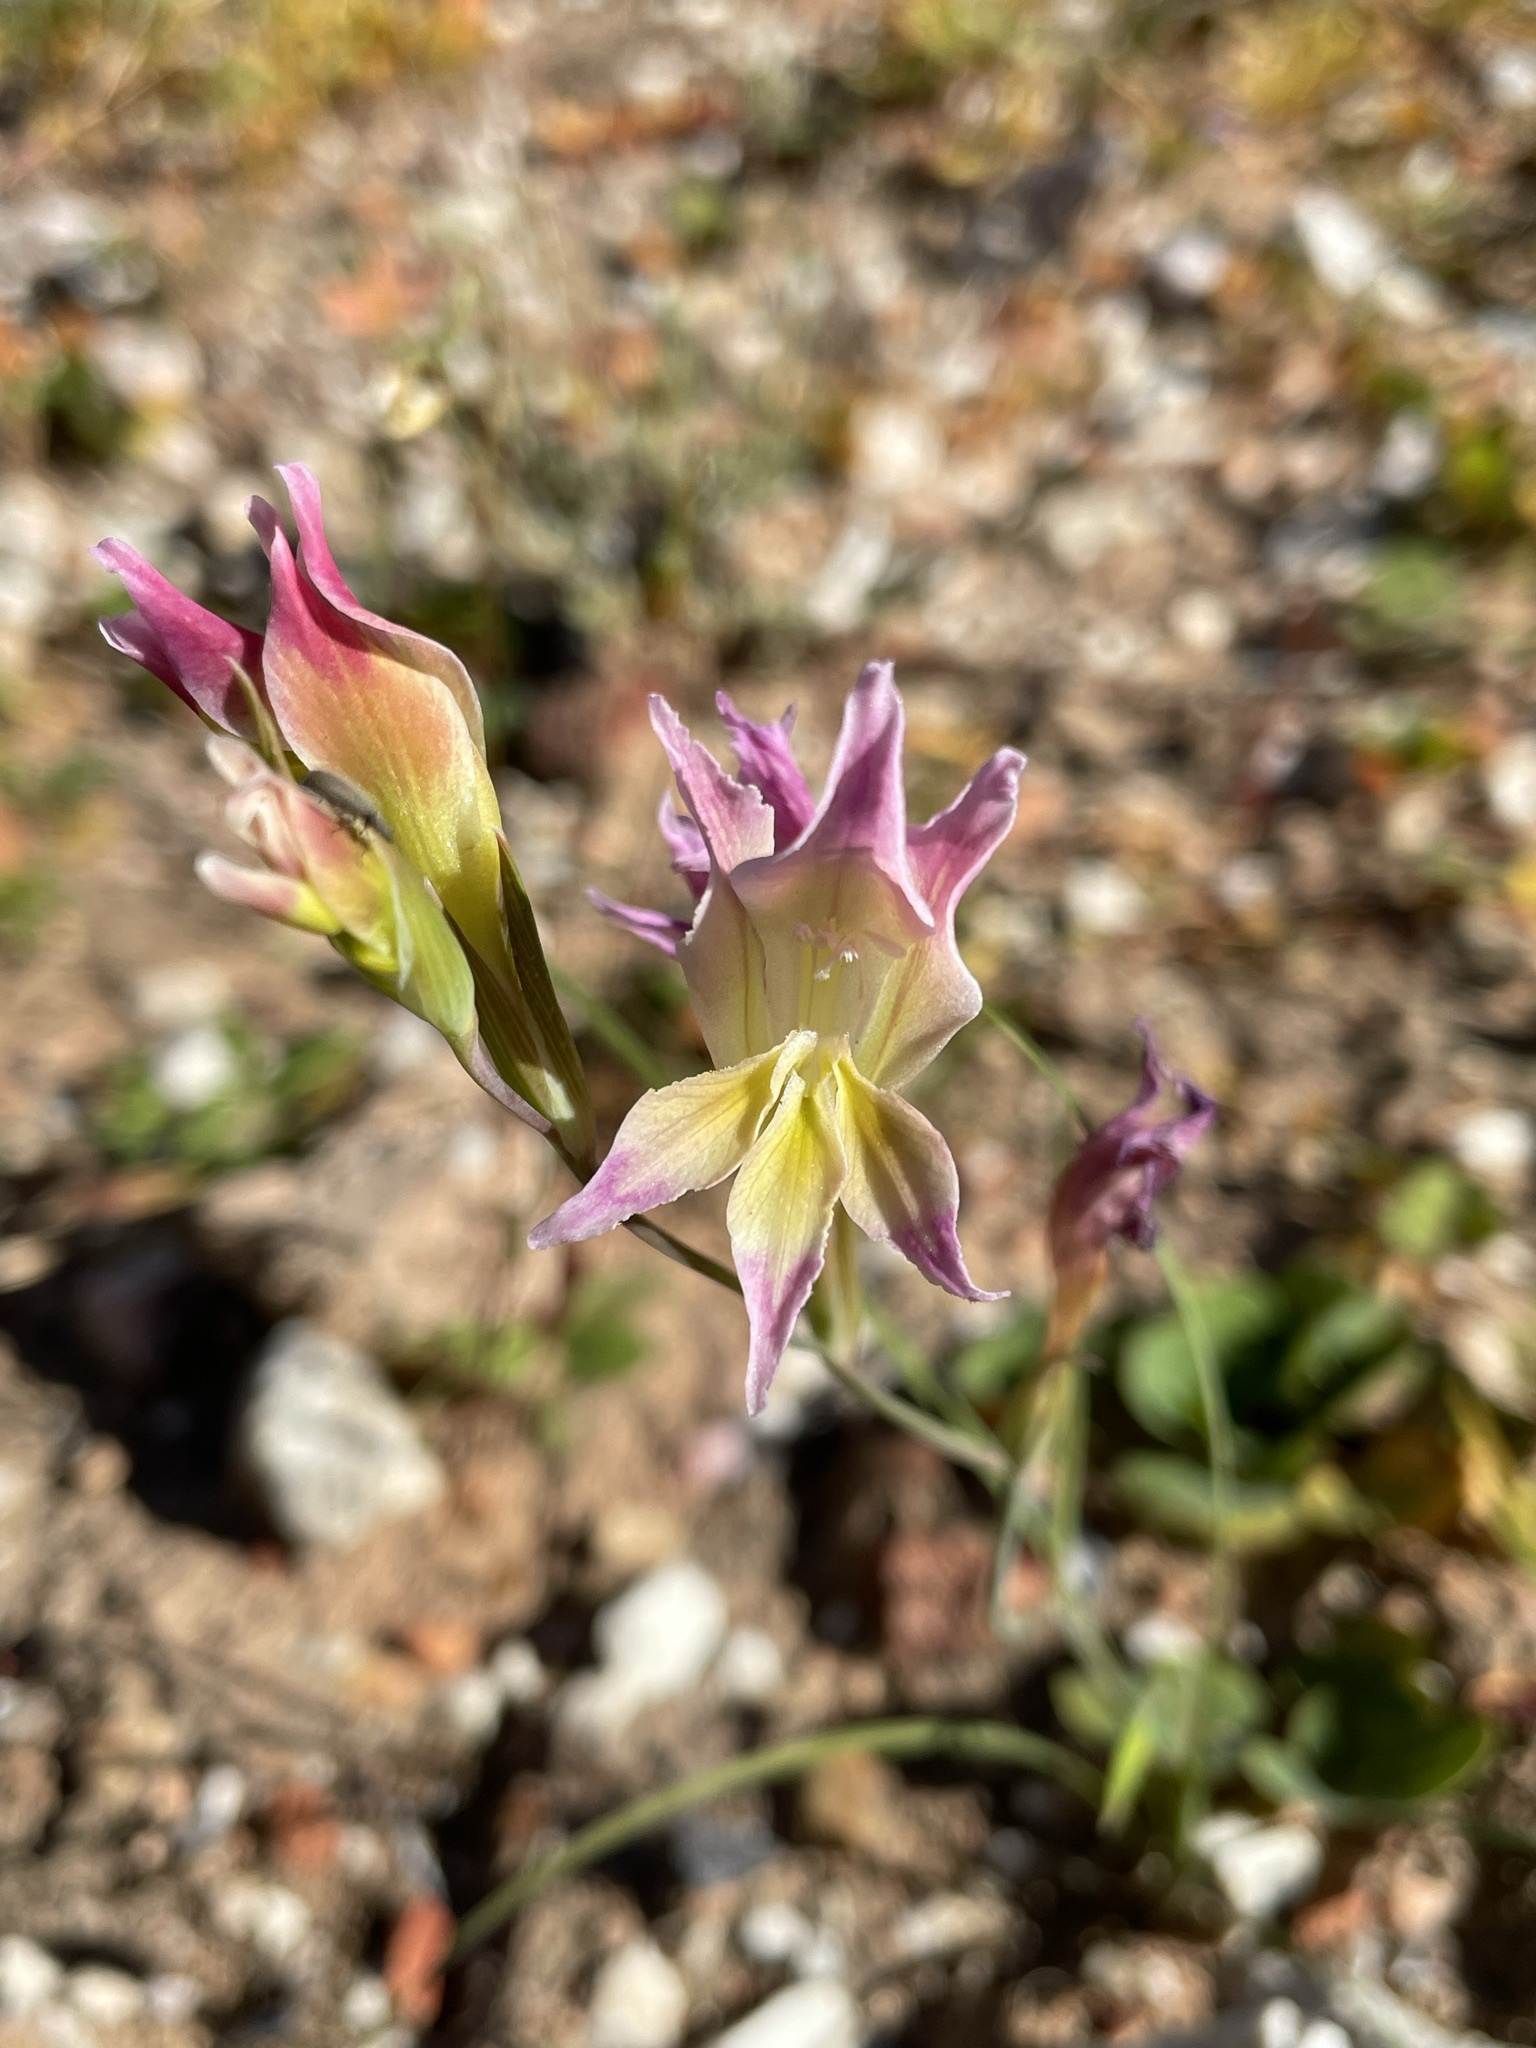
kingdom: Plantae
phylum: Tracheophyta
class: Liliopsida
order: Asparagales
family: Iridaceae
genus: Gladiolus
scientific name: Gladiolus venustus
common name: Purple kalkoentjie
